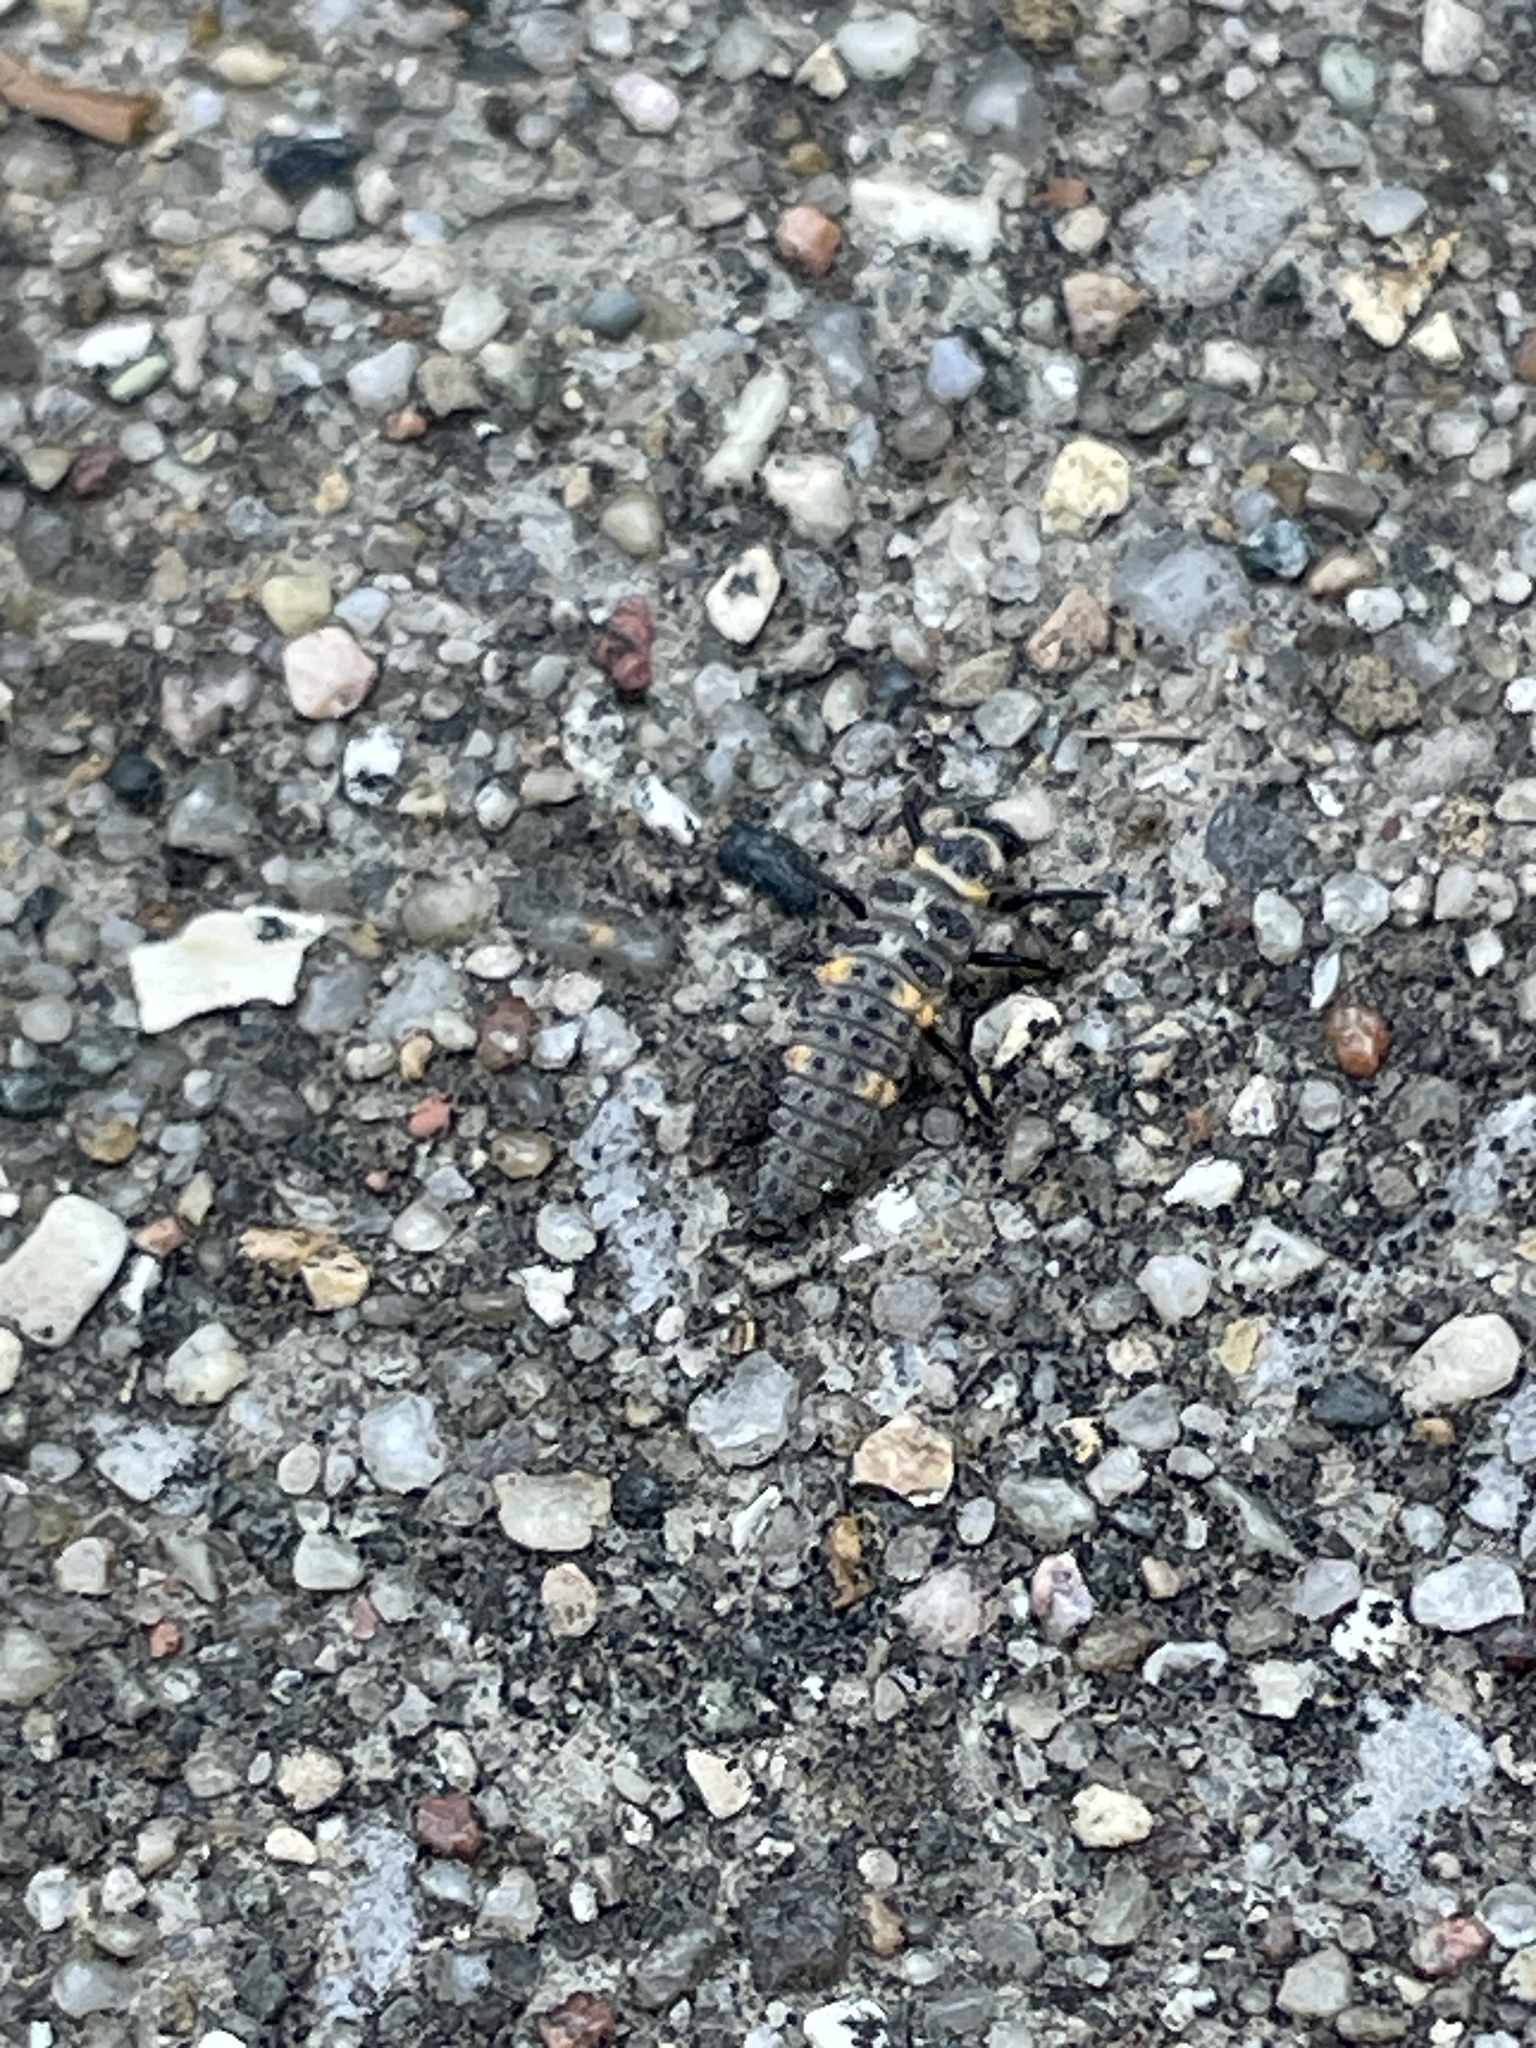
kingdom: Animalia
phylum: Arthropoda
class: Insecta
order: Coleoptera
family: Coccinellidae
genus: Coccinella
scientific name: Coccinella septempunctata
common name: Sevenspotted lady beetle
